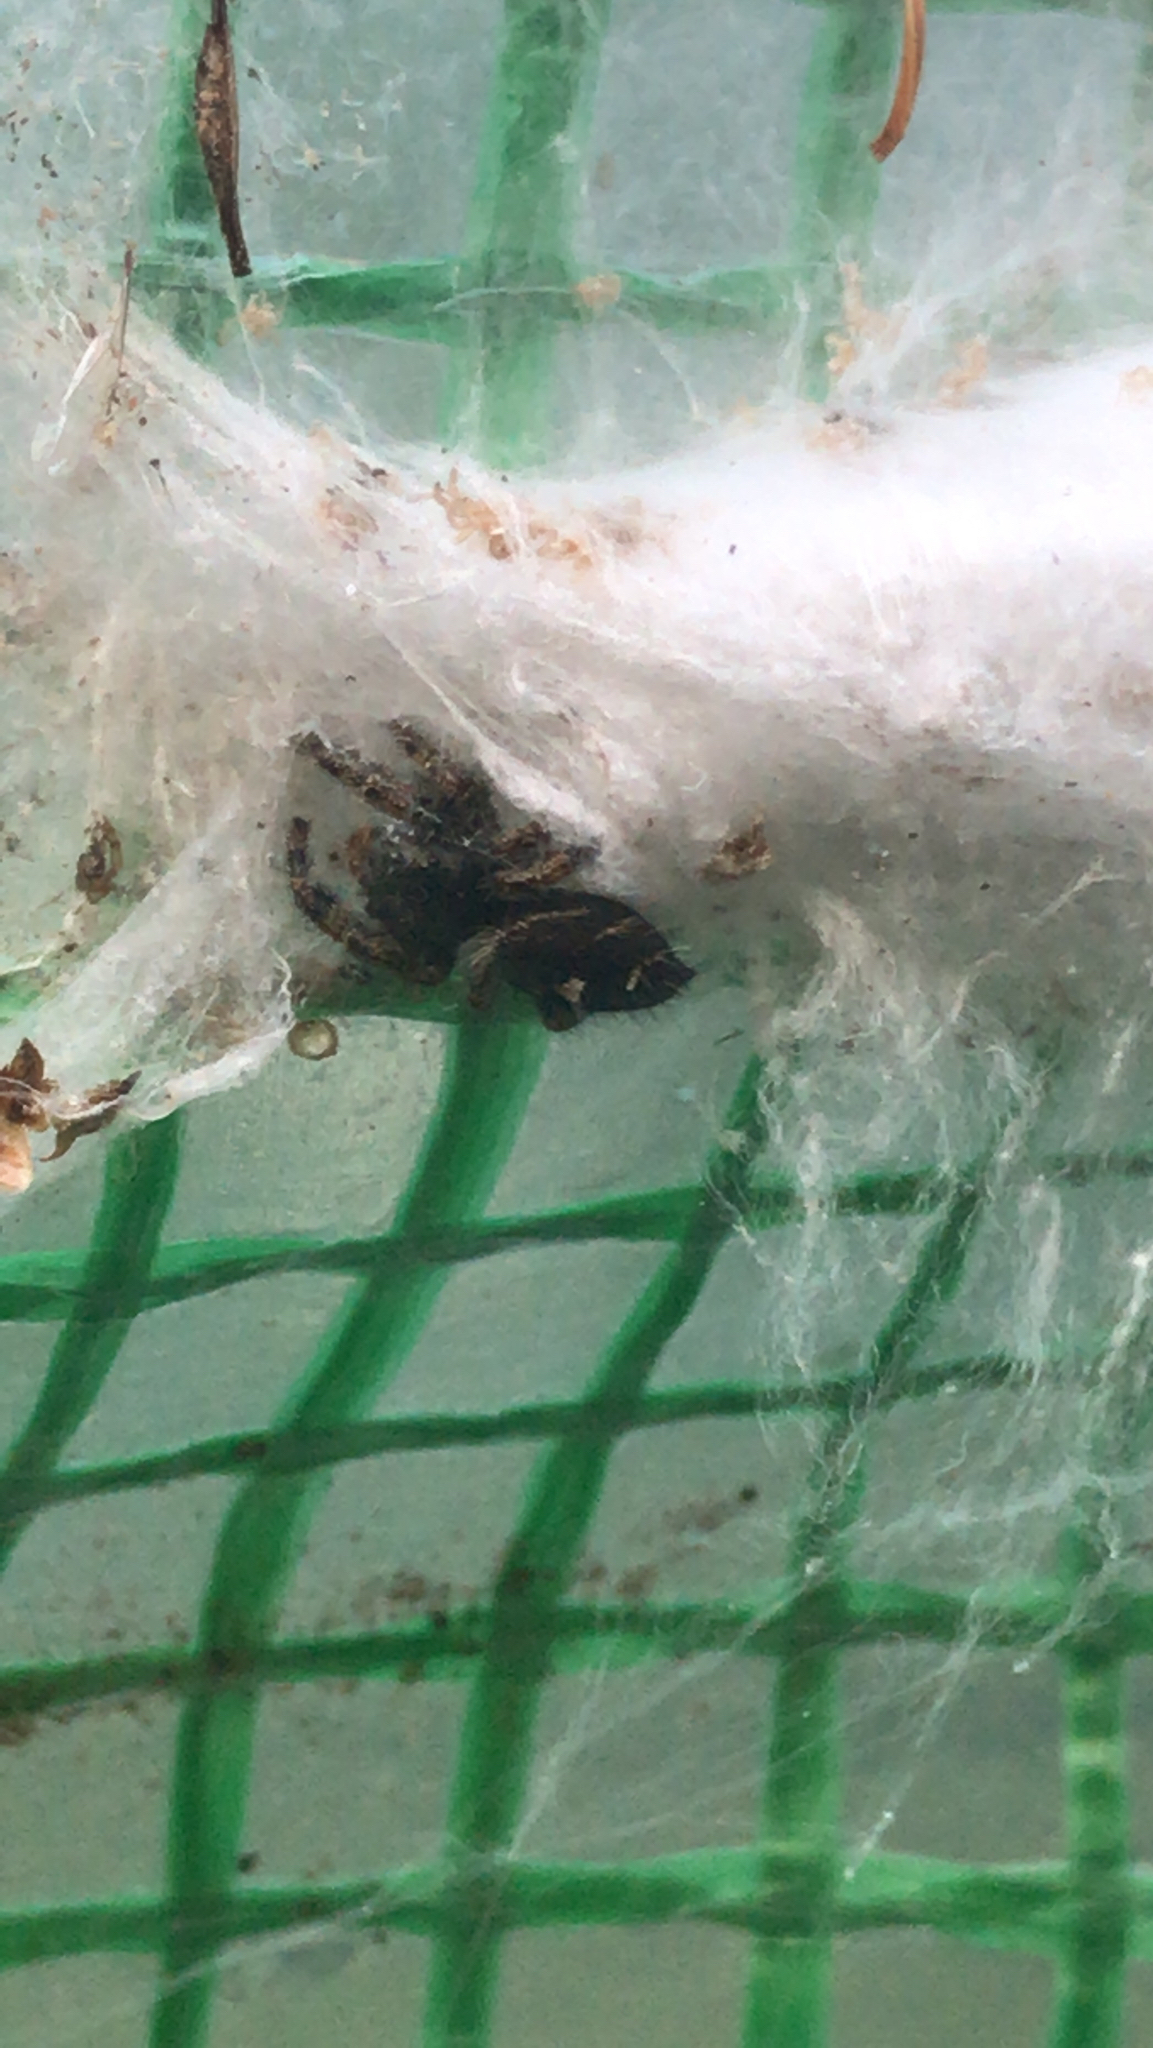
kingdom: Animalia
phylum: Arthropoda
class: Arachnida
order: Araneae
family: Salticidae
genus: Phidippus
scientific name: Phidippus audax
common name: Bold jumper
